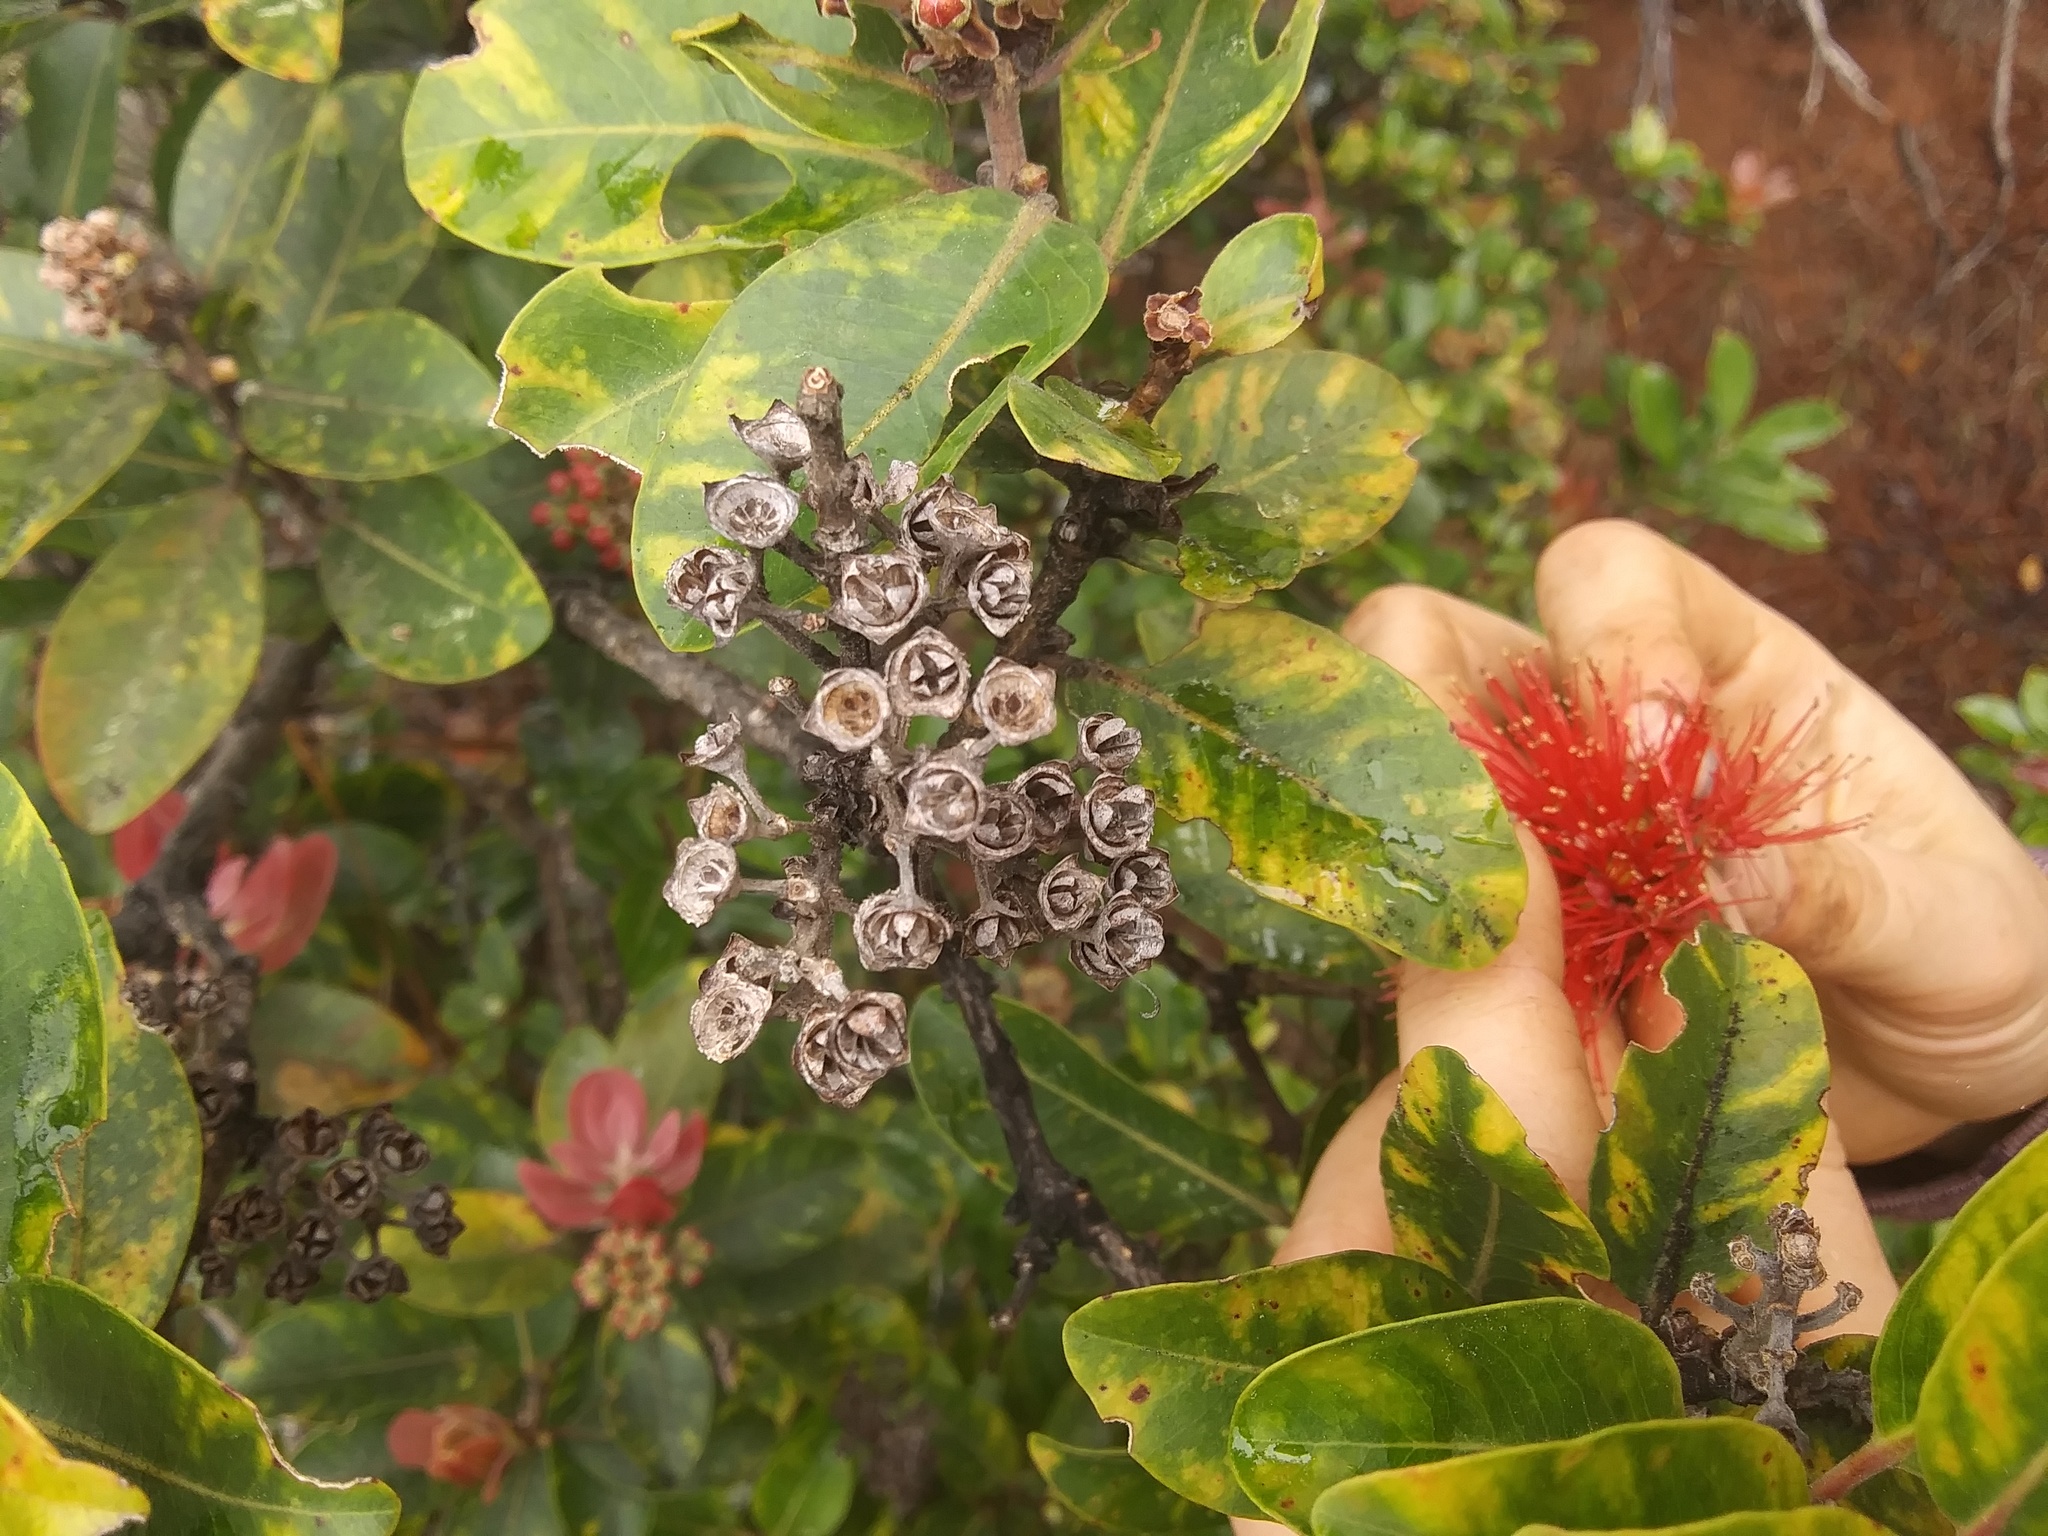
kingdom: Plantae
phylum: Tracheophyta
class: Magnoliopsida
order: Myrtales
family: Myrtaceae
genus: Metrosideros
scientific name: Metrosideros polymorpha
